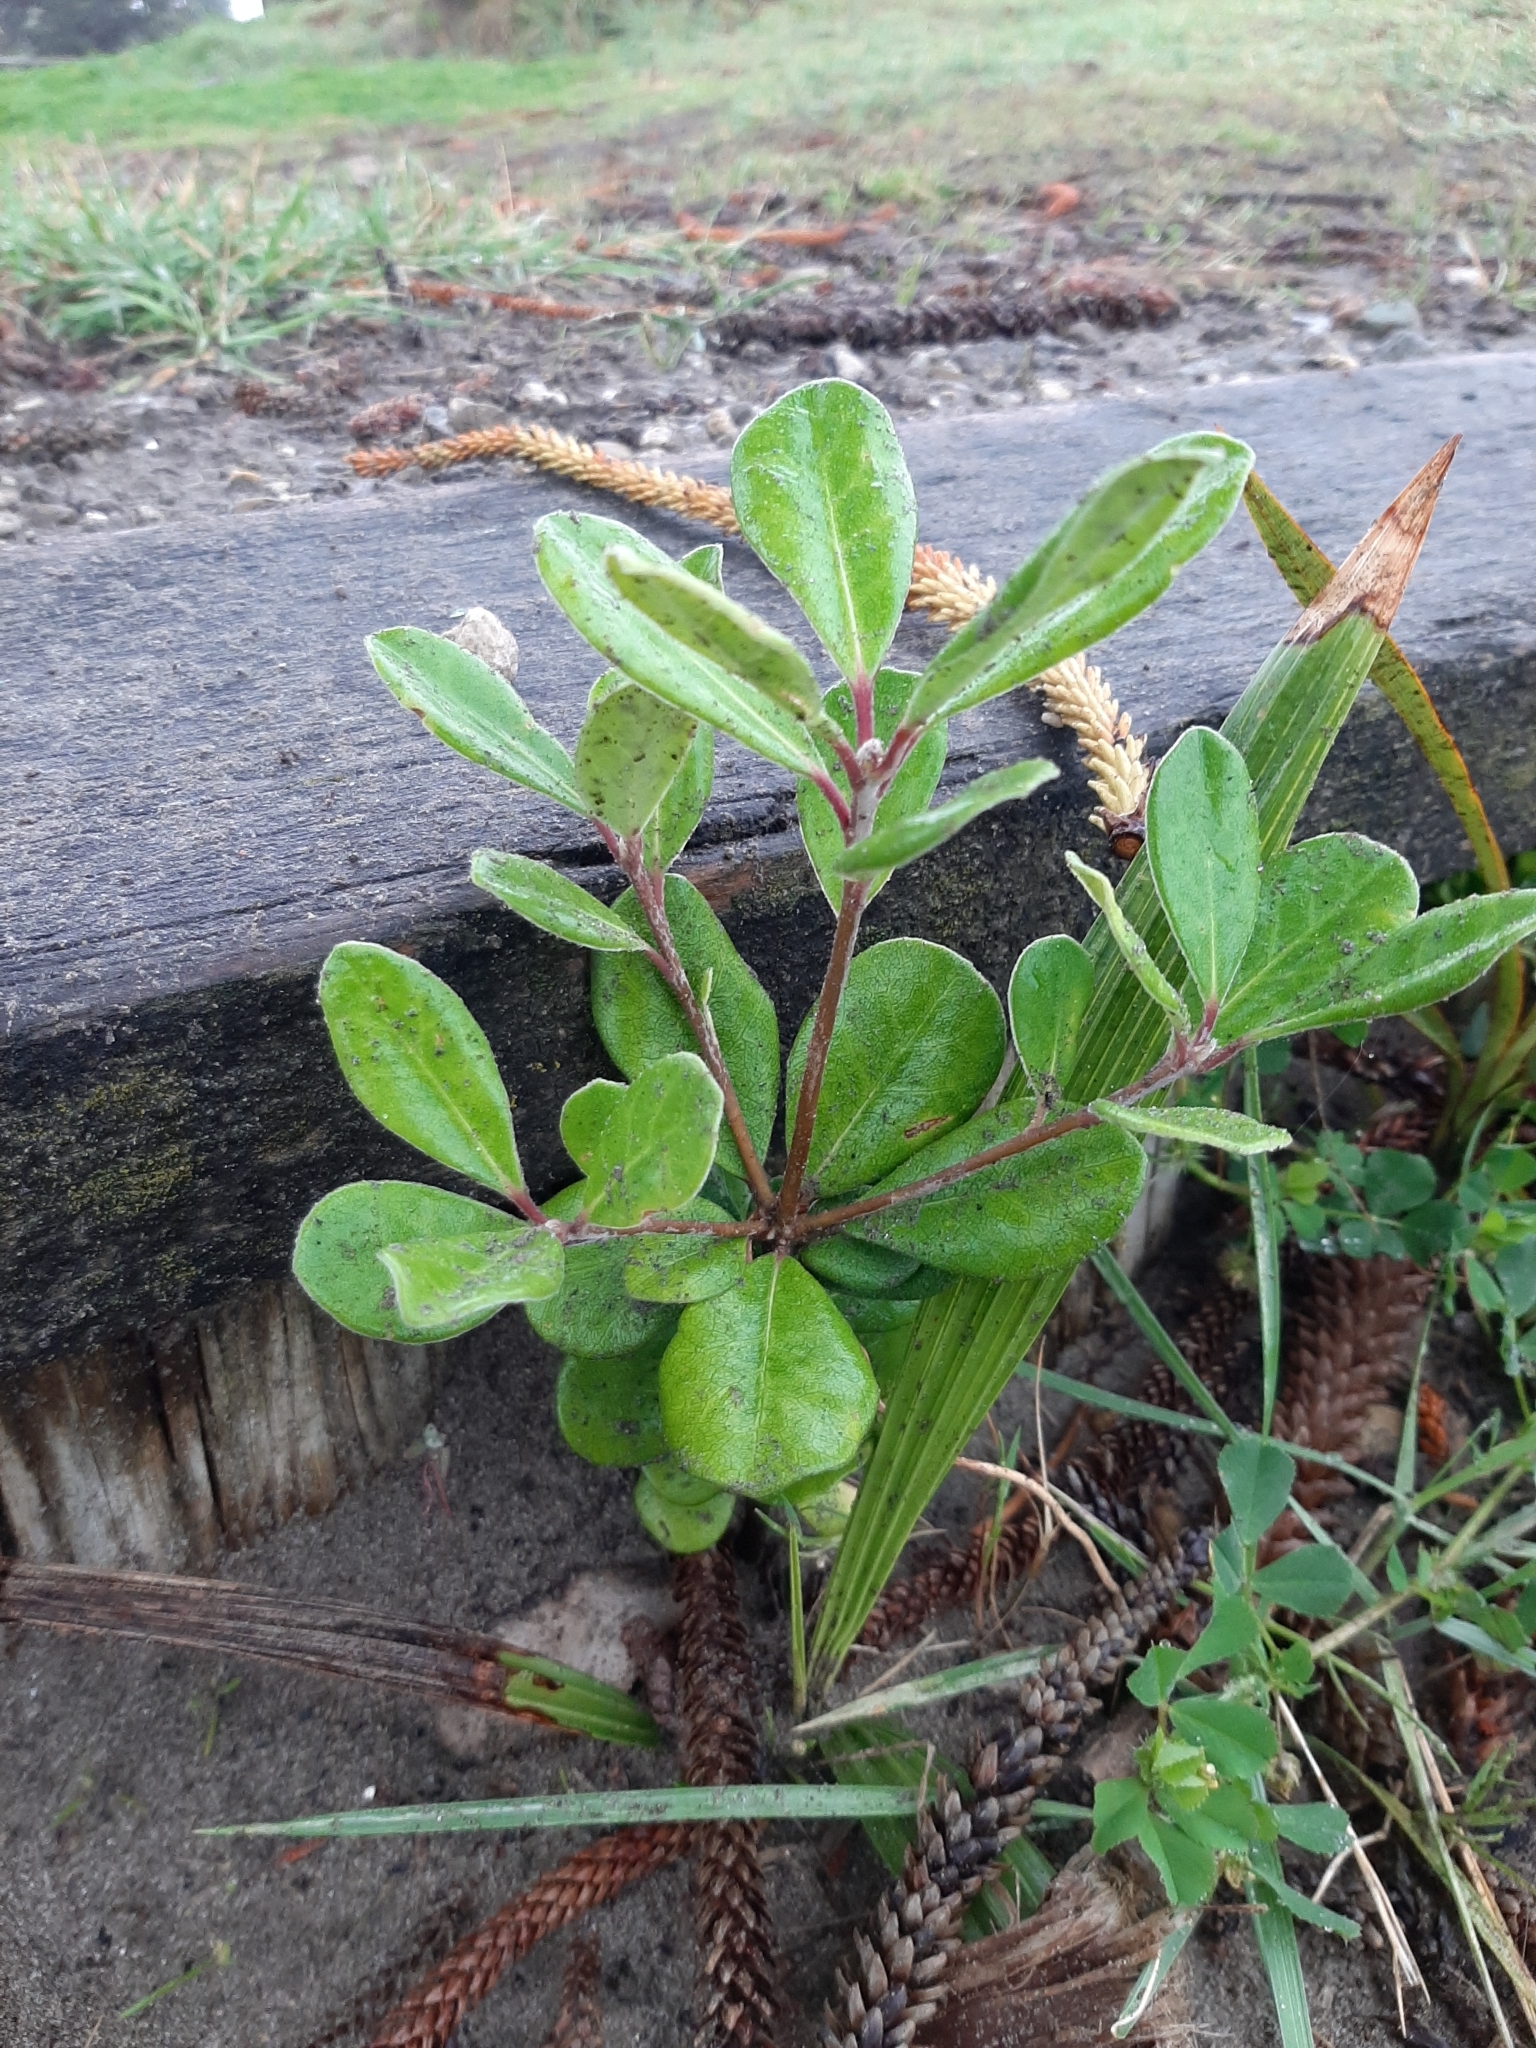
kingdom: Plantae
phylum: Tracheophyta
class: Magnoliopsida
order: Apiales
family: Pittosporaceae
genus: Pittosporum
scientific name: Pittosporum crassifolium
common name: Karo
